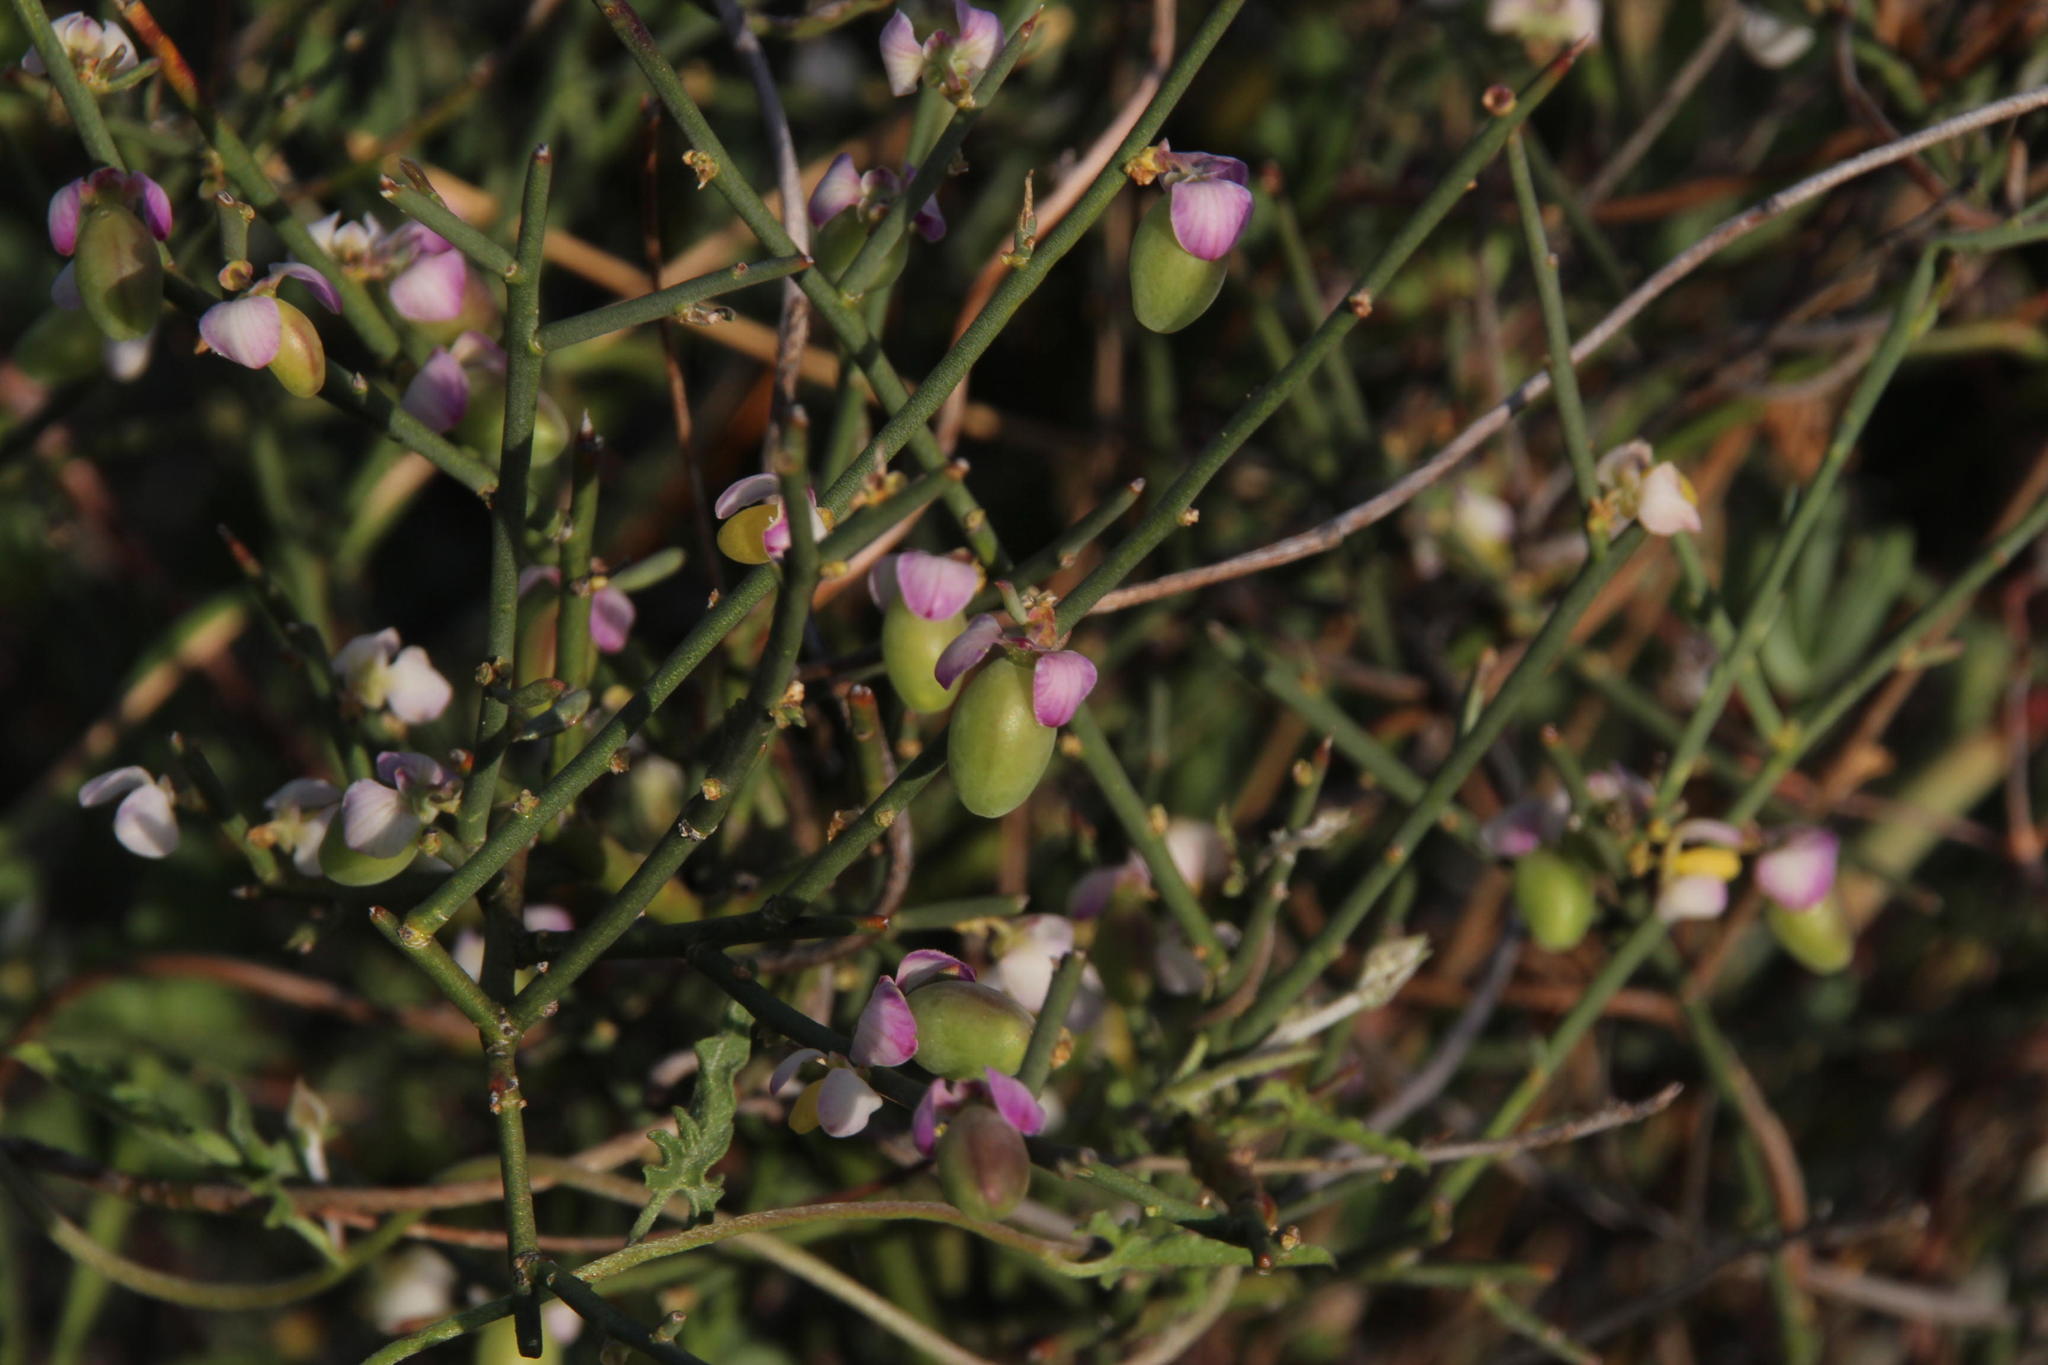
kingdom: Plantae
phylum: Tracheophyta
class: Magnoliopsida
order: Fabales
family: Polygalaceae
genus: Muraltia
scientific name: Muraltia spinosa
